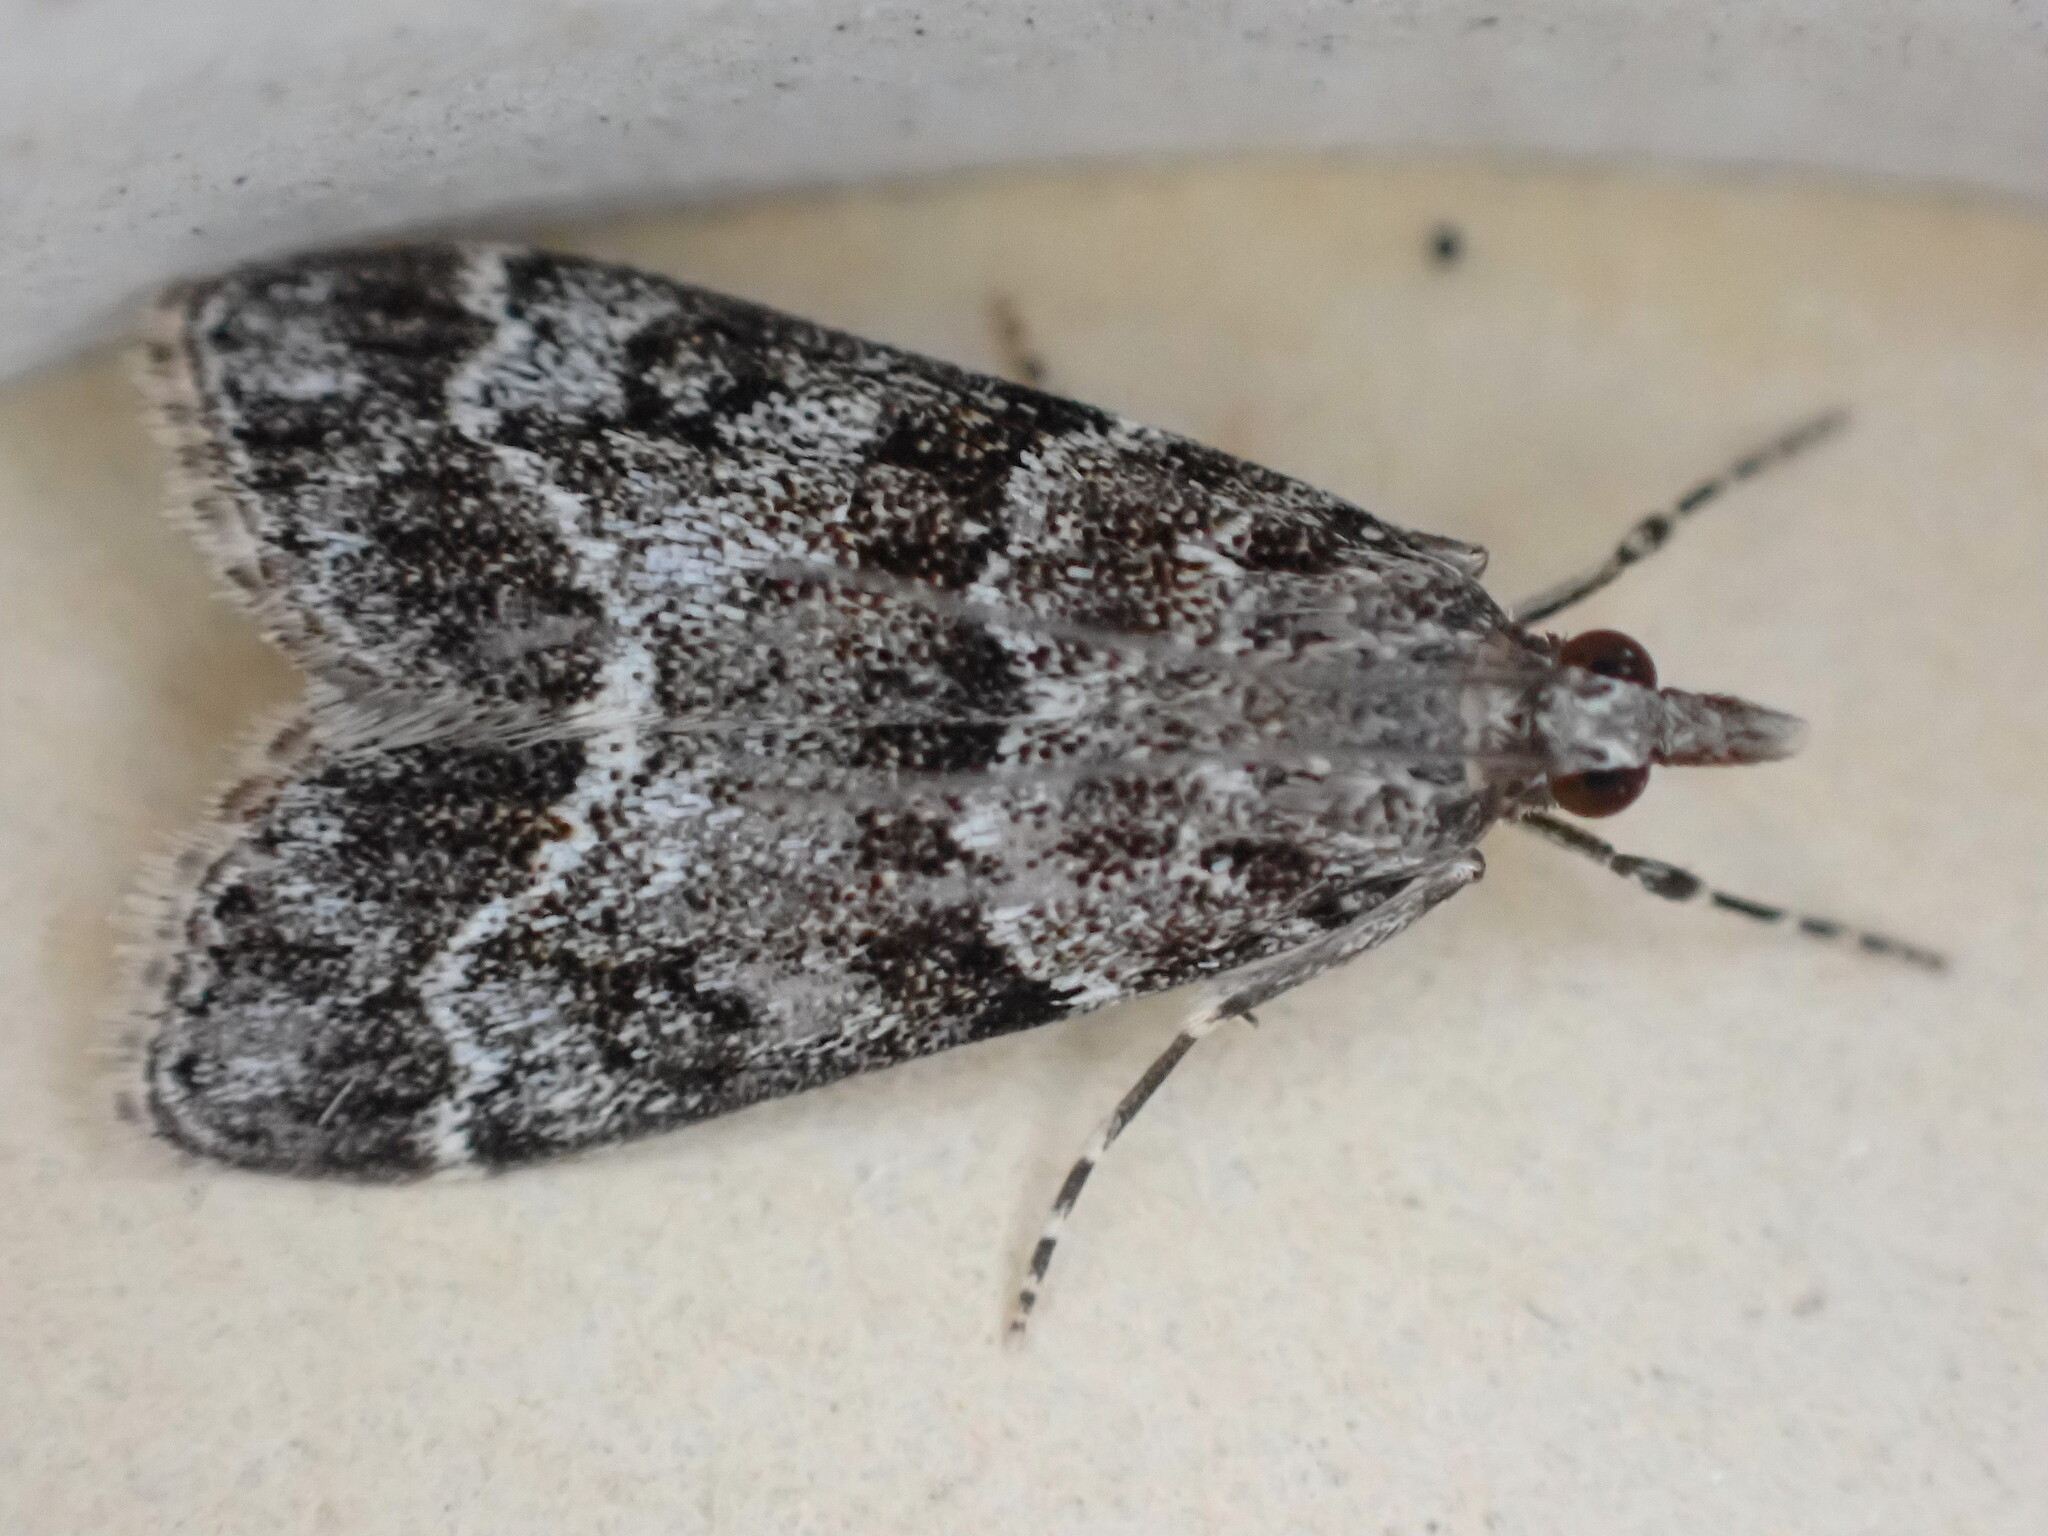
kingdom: Animalia
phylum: Arthropoda
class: Insecta
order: Lepidoptera
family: Crambidae
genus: Eudonia
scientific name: Eudonia mercurella
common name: Small grey
